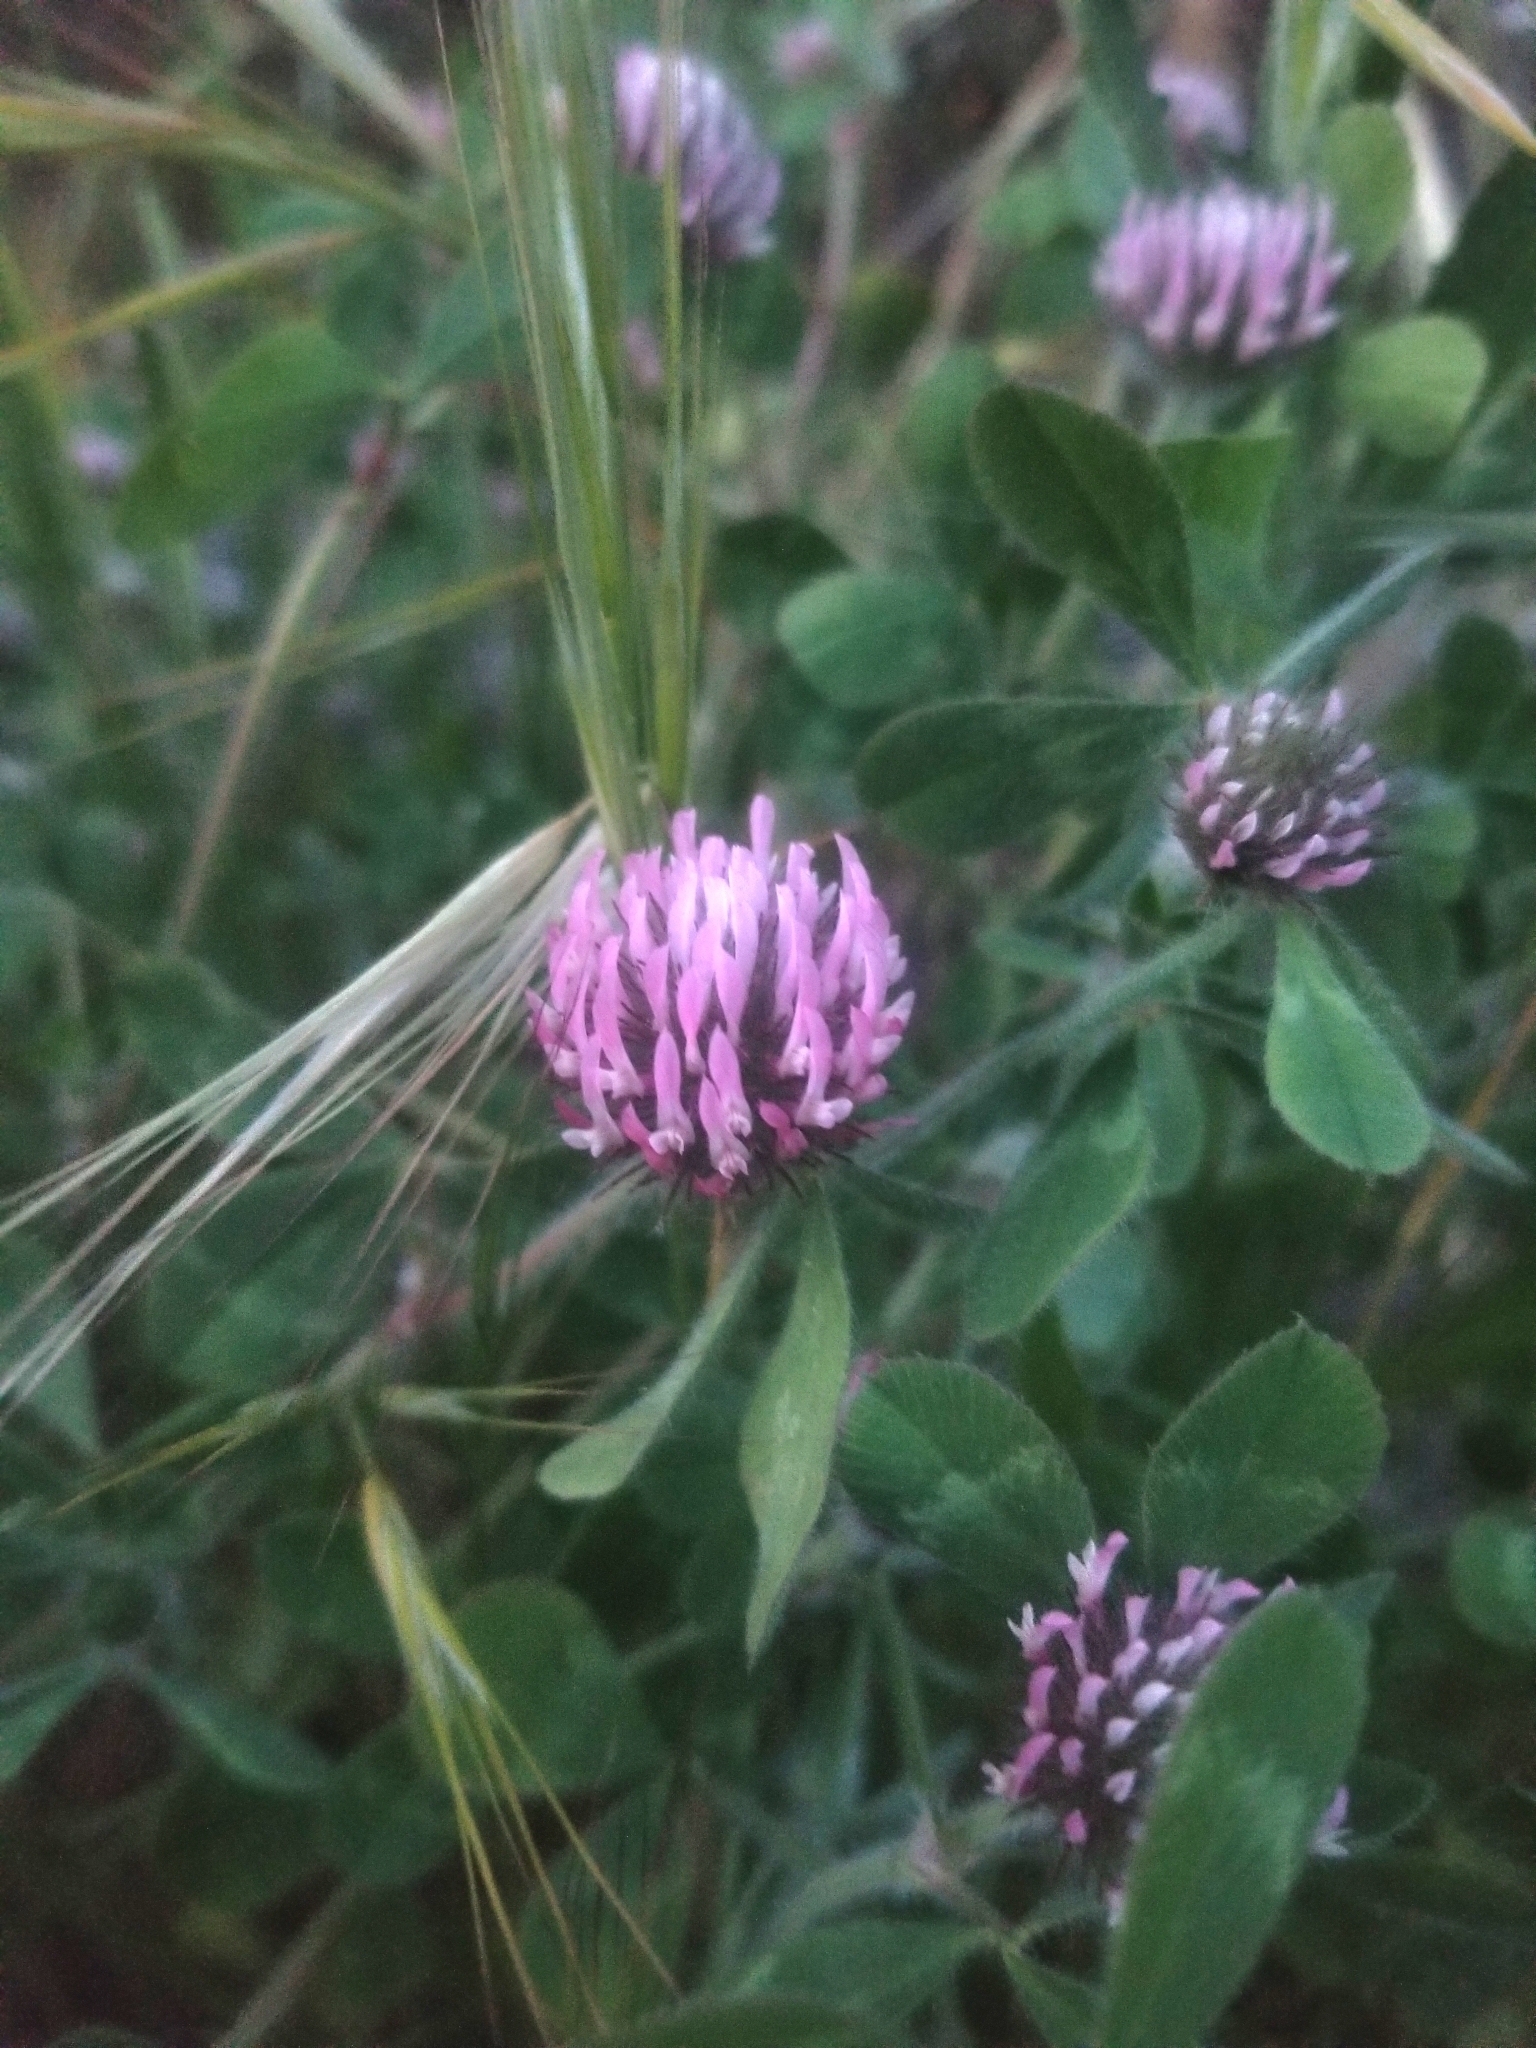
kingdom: Plantae
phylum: Tracheophyta
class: Magnoliopsida
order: Fabales
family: Fabaceae
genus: Trifolium
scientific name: Trifolium hirtum
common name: Rose clover
